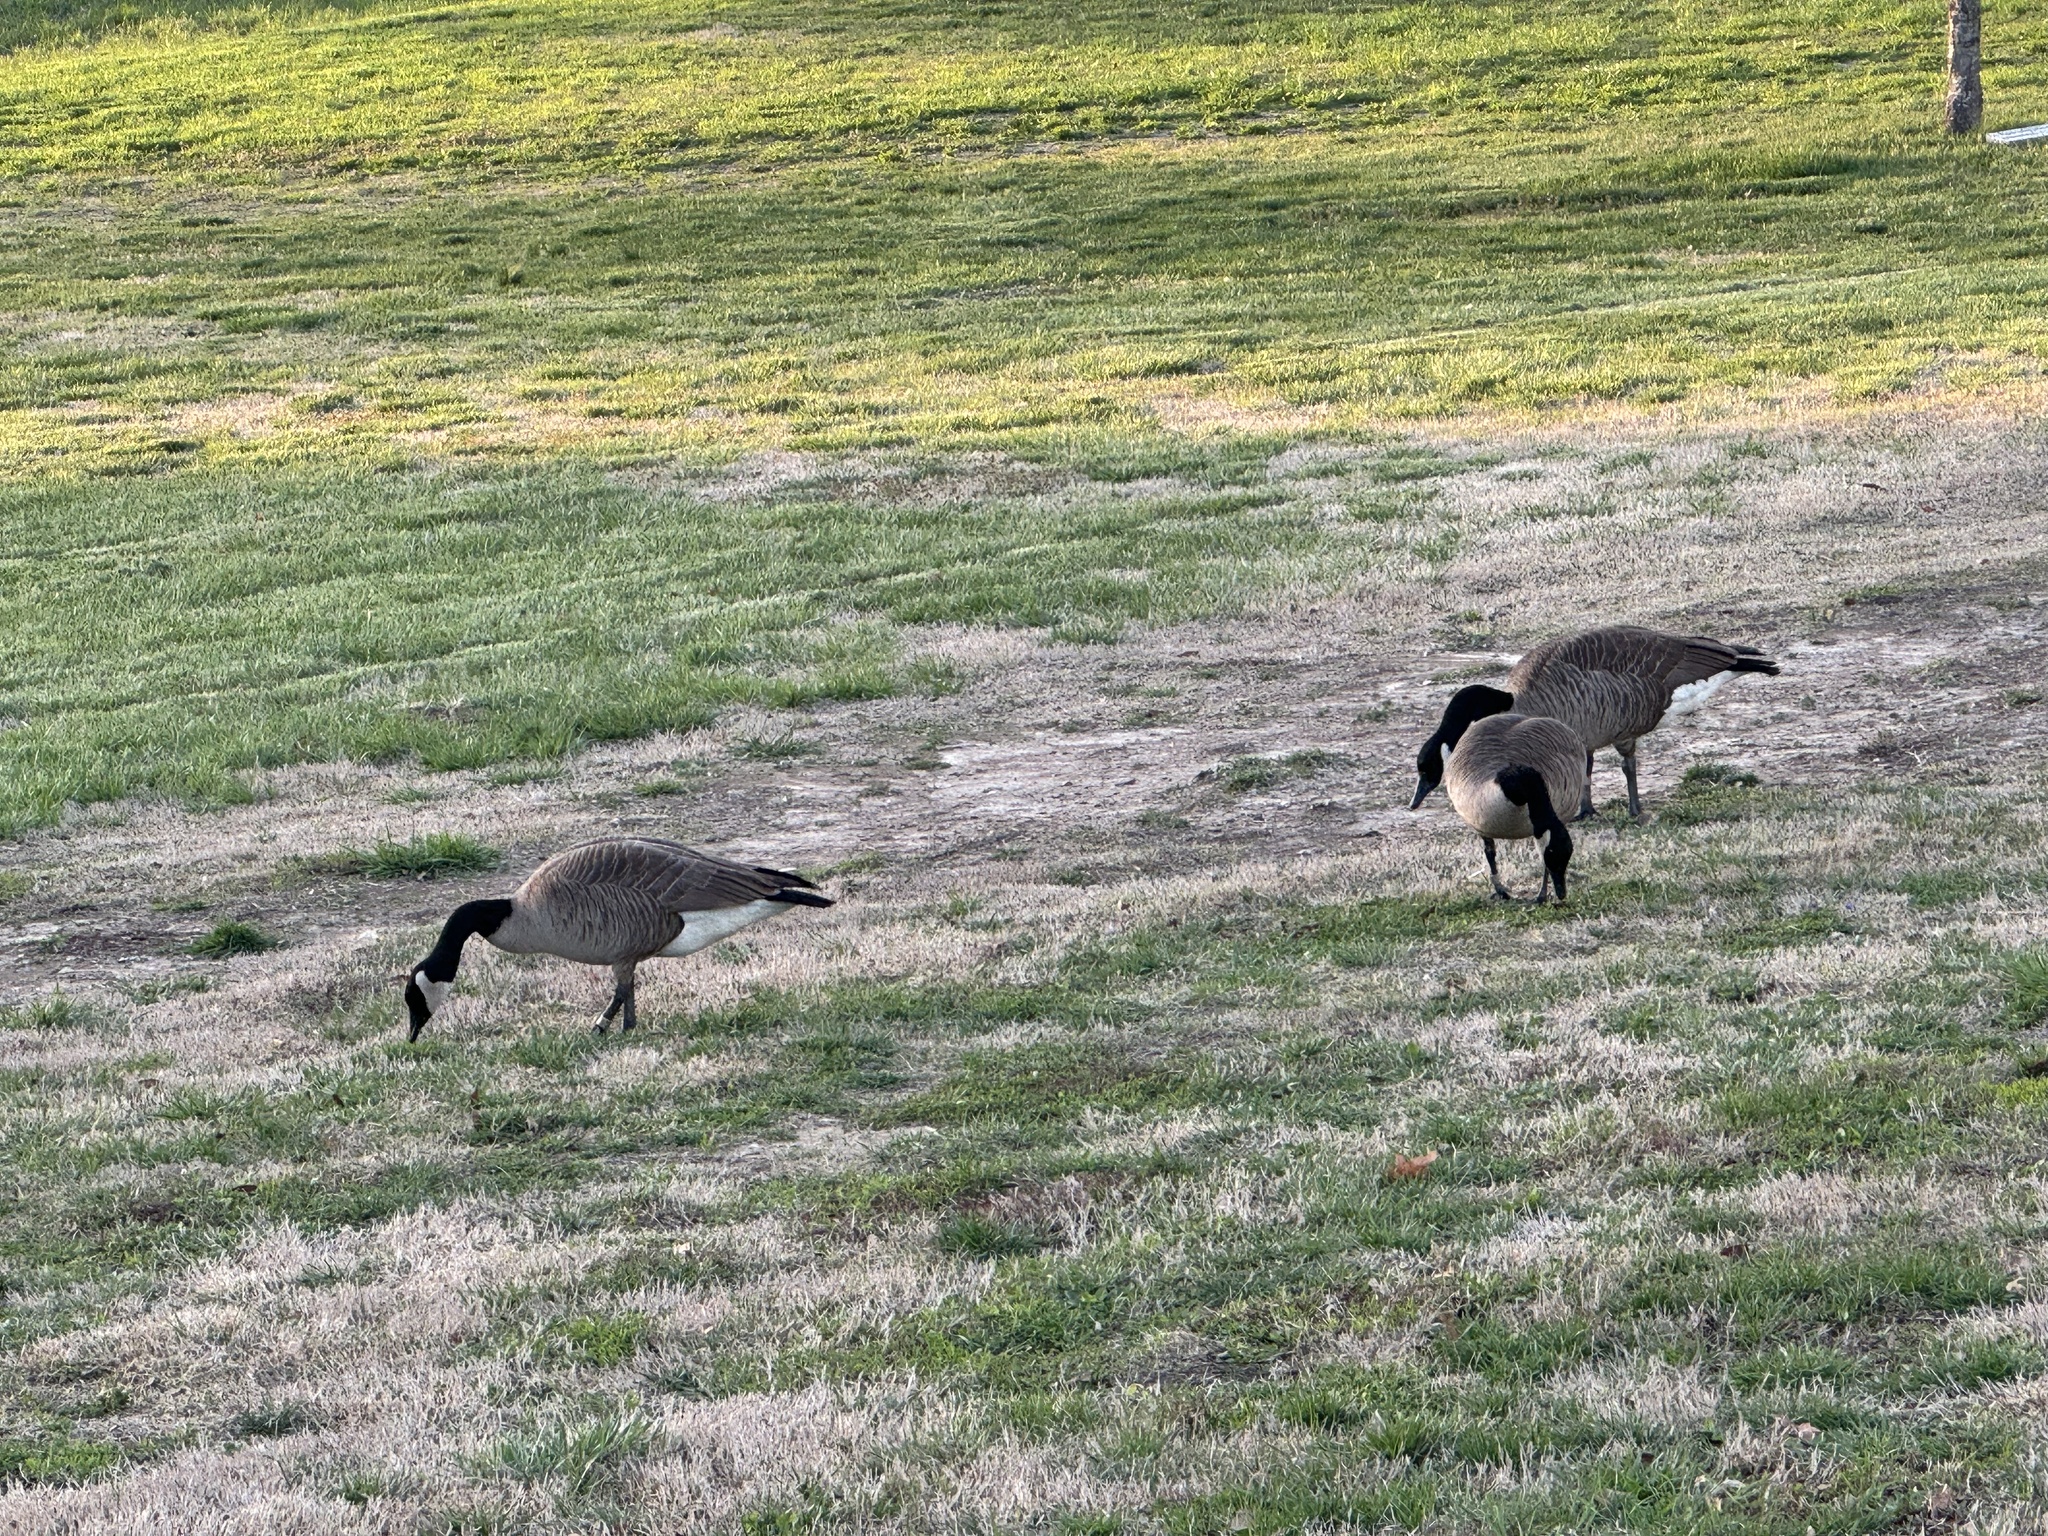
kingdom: Animalia
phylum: Chordata
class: Aves
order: Anseriformes
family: Anatidae
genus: Branta
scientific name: Branta canadensis
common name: Canada goose
